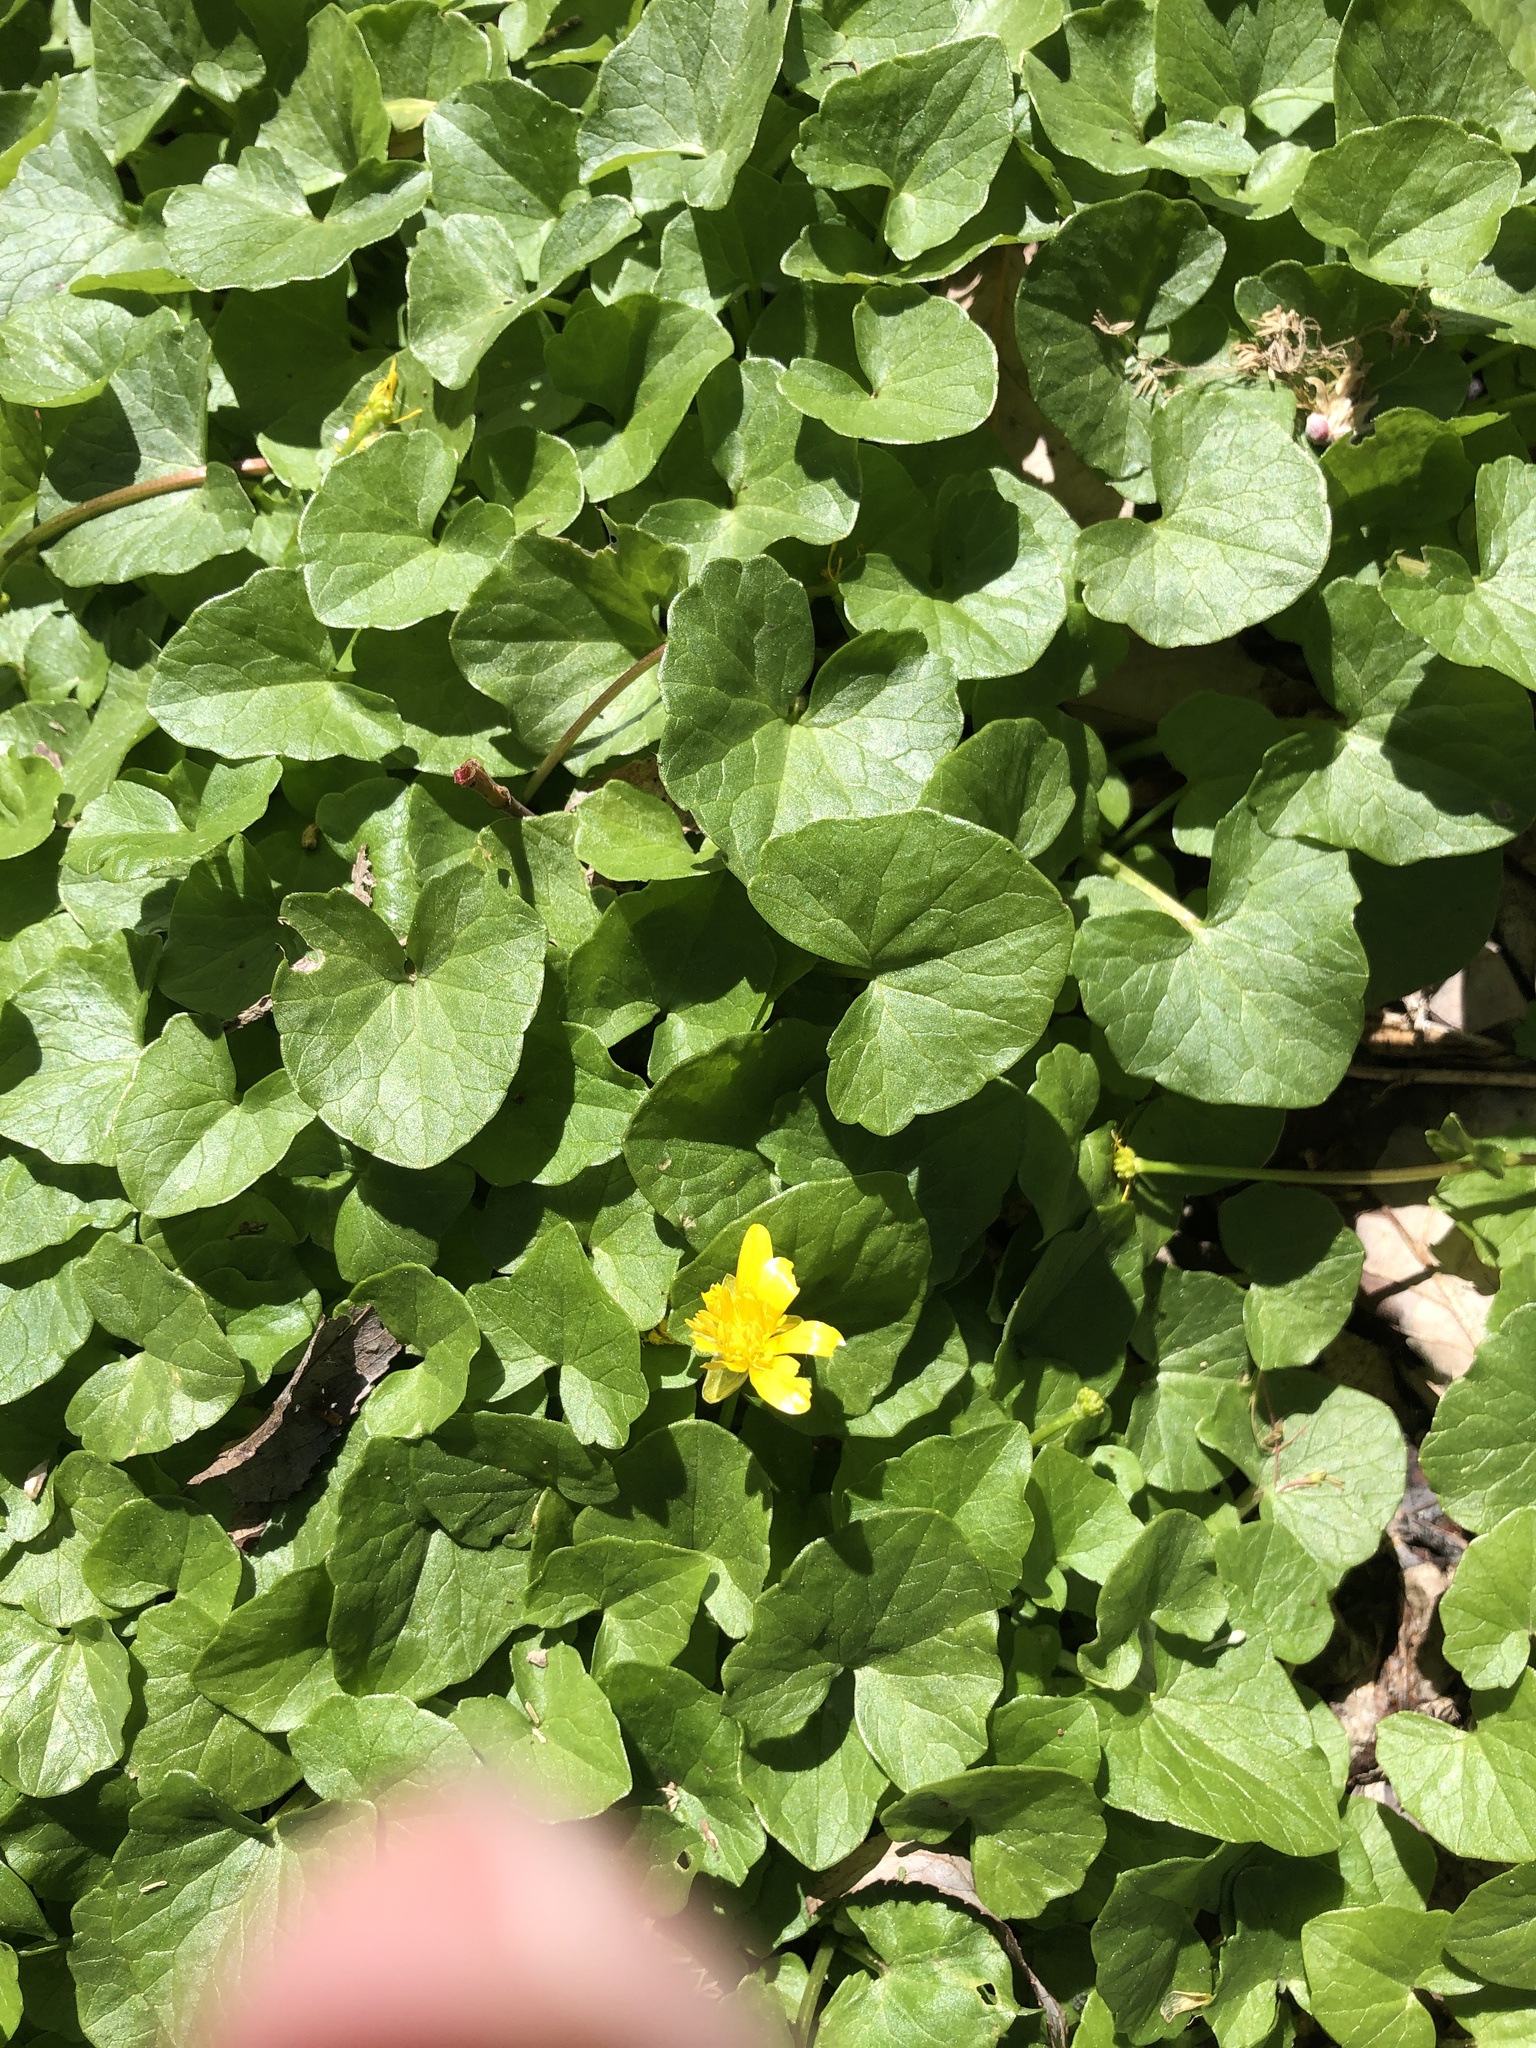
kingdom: Plantae
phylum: Tracheophyta
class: Magnoliopsida
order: Ranunculales
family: Ranunculaceae
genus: Ficaria
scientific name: Ficaria verna
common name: Lesser celandine
